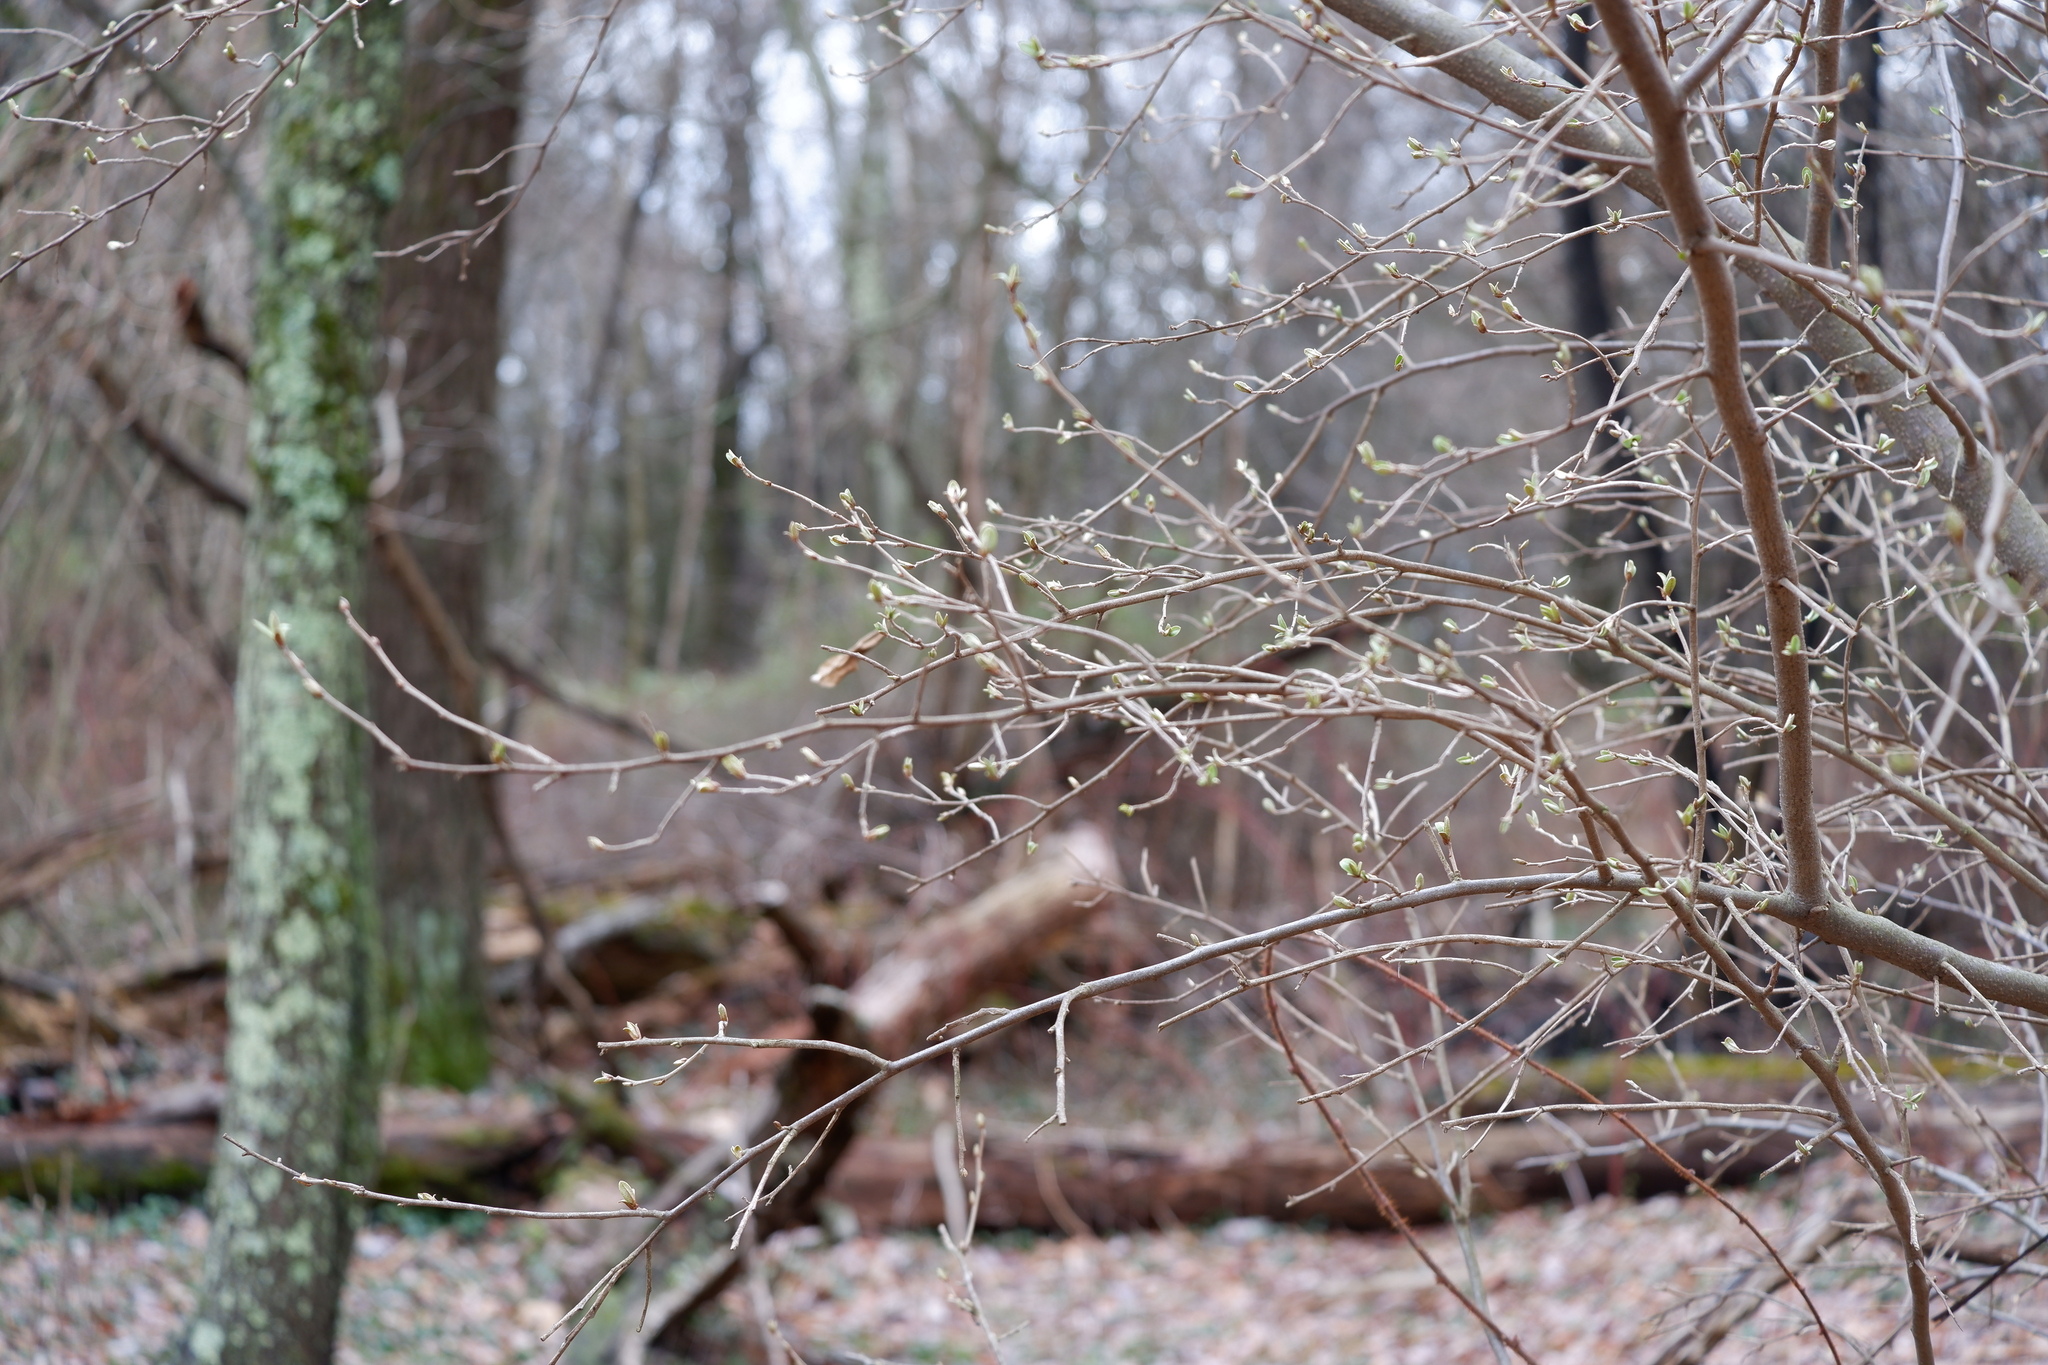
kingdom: Plantae
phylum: Tracheophyta
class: Magnoliopsida
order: Rosales
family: Elaeagnaceae
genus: Elaeagnus
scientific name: Elaeagnus umbellata
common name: Autumn olive
